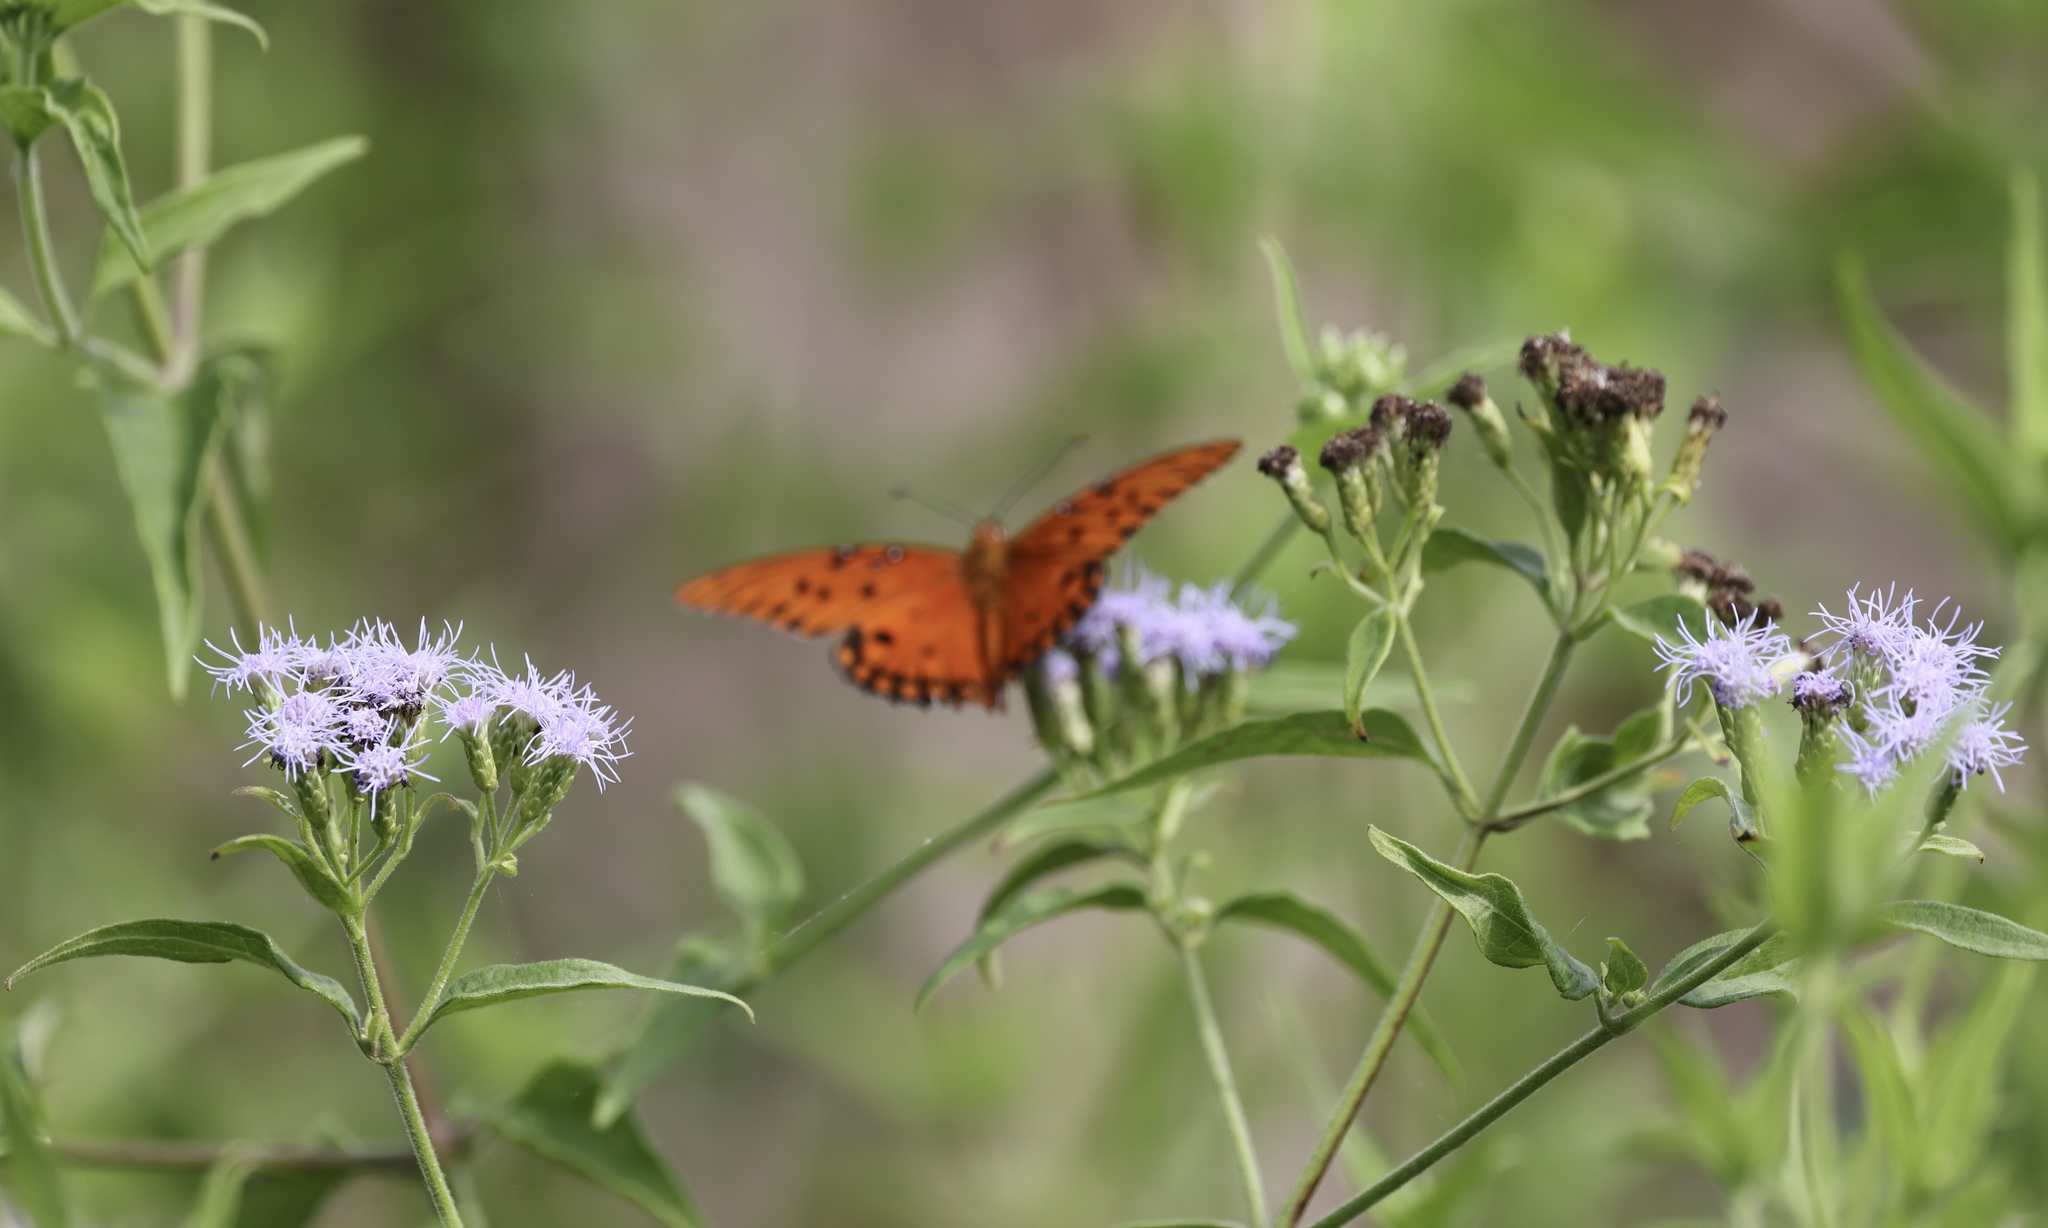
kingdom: Plantae
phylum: Tracheophyta
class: Magnoliopsida
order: Asterales
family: Asteraceae
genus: Chromolaena
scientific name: Chromolaena odorata
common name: Siamweed
